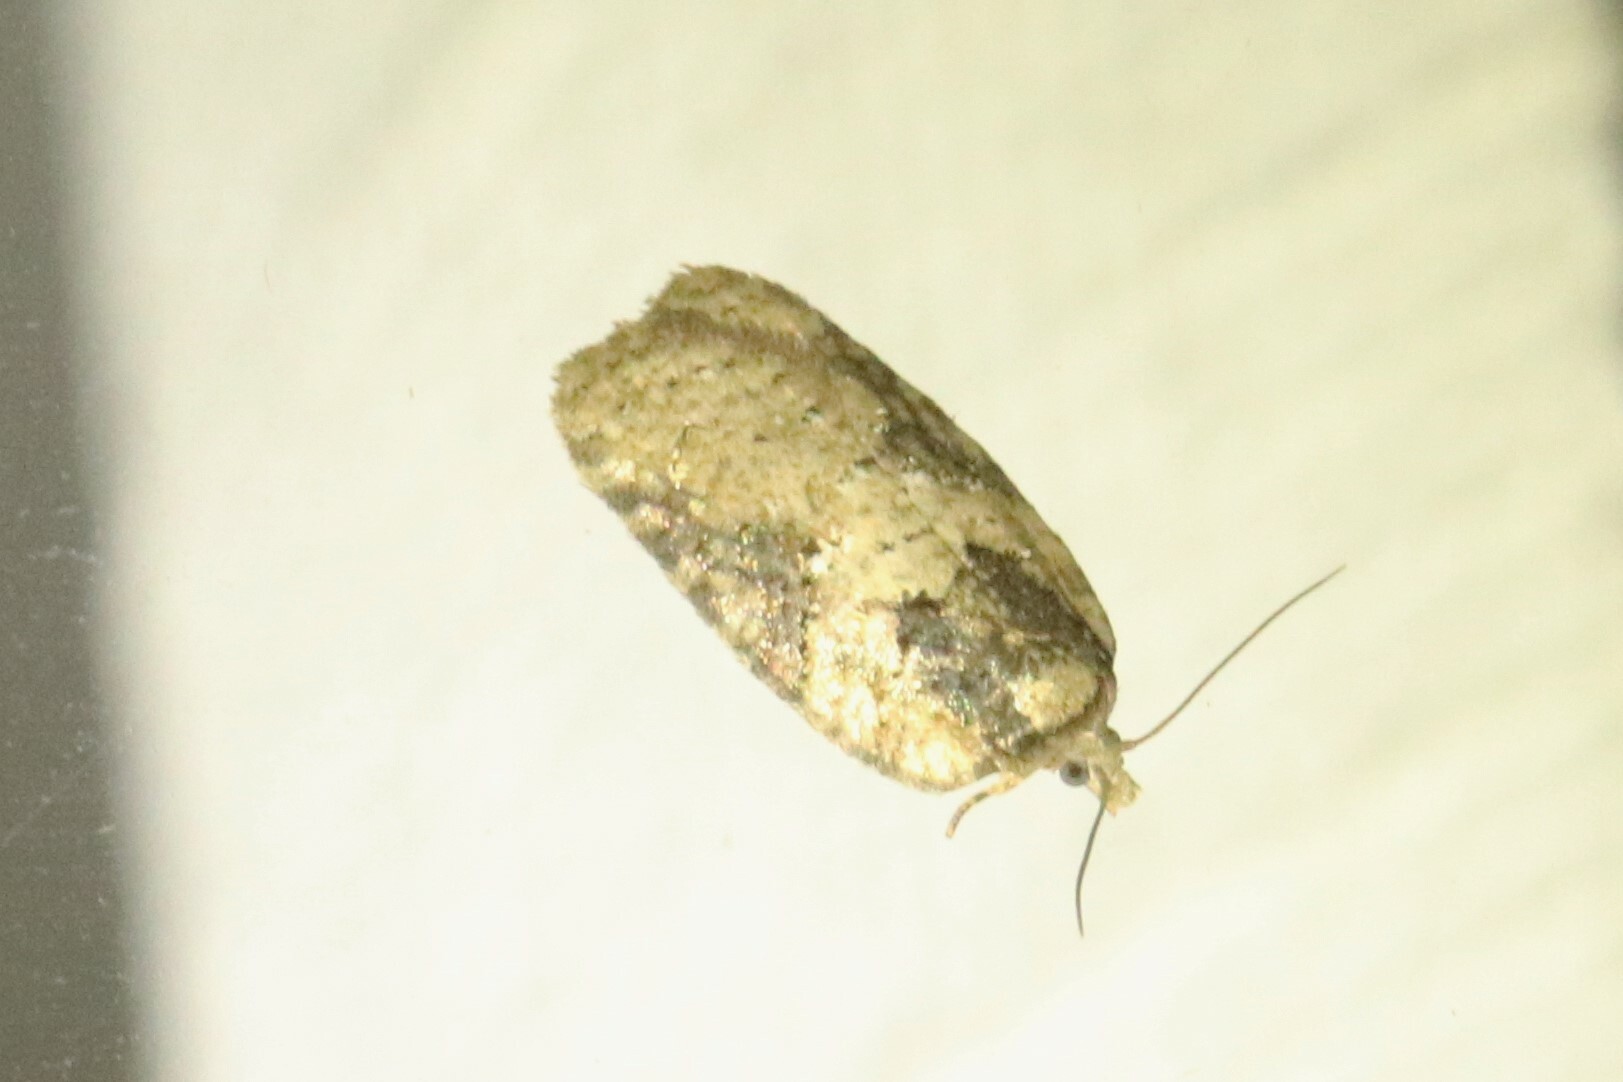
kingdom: Animalia
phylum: Arthropoda
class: Insecta
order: Lepidoptera
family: Tortricidae
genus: Acleris
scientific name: Acleris chalybeana
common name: Lesser maple leafroller
